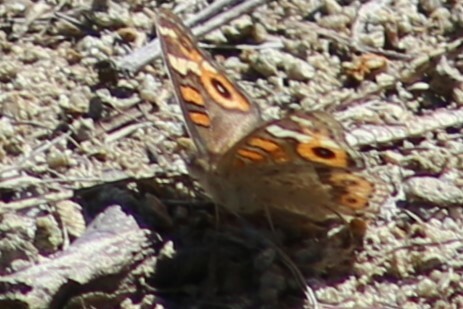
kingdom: Animalia
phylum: Arthropoda
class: Insecta
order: Lepidoptera
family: Nymphalidae
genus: Junonia
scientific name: Junonia villida
